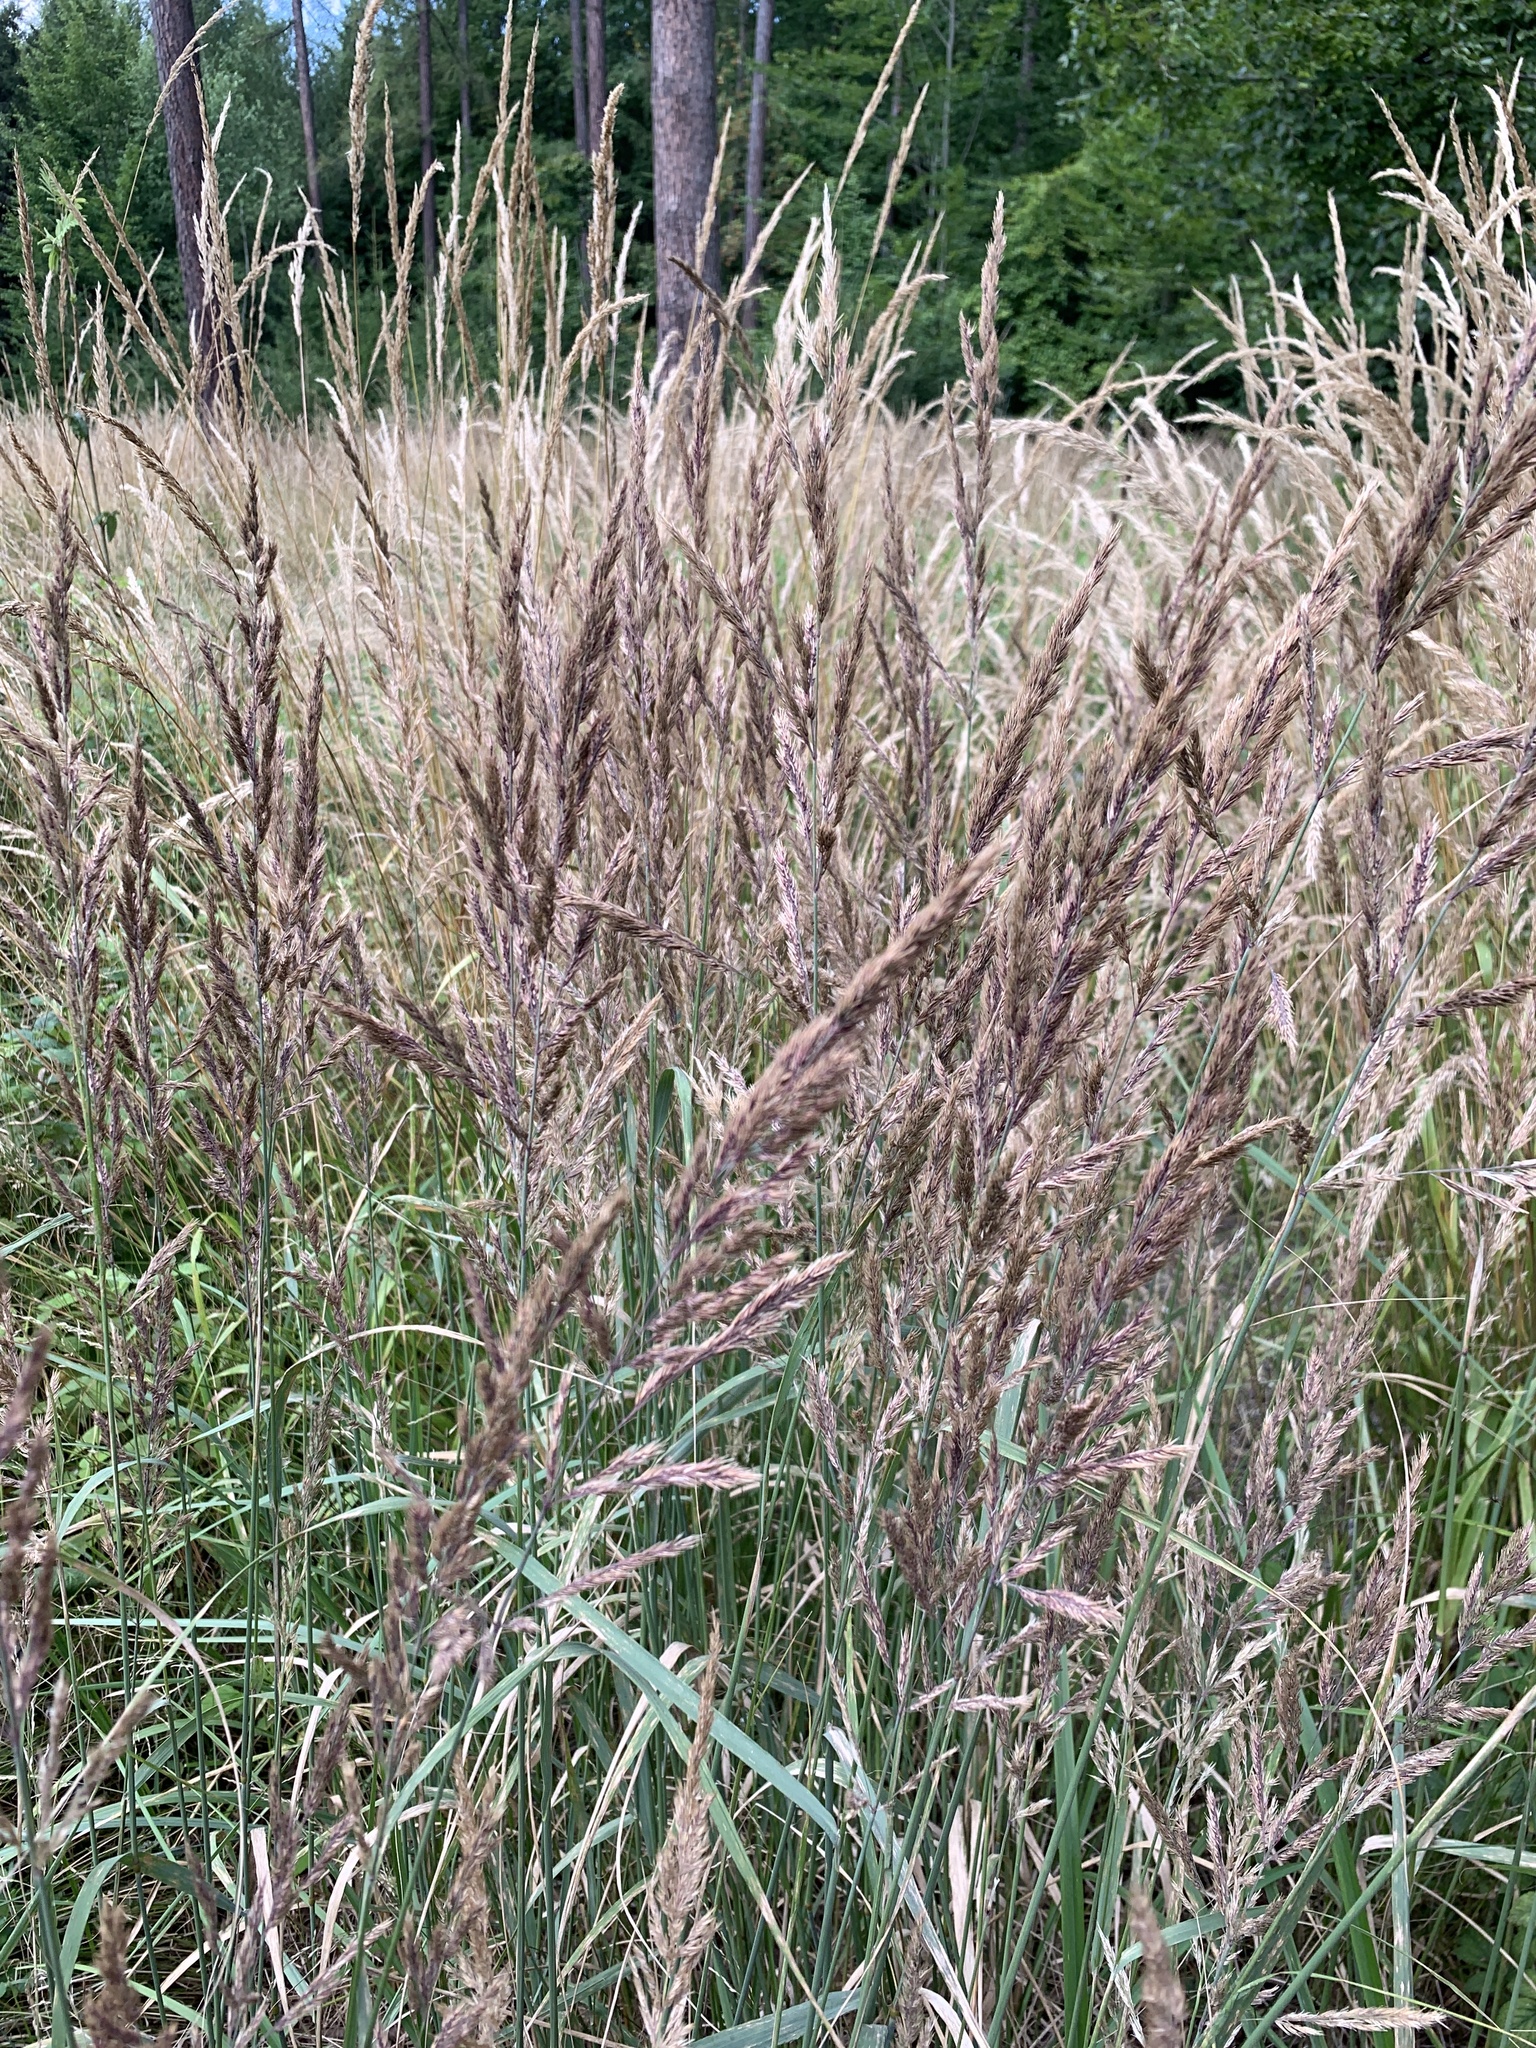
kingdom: Plantae
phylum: Tracheophyta
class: Liliopsida
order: Poales
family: Poaceae
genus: Calamagrostis
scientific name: Calamagrostis epigejos
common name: Wood small-reed
